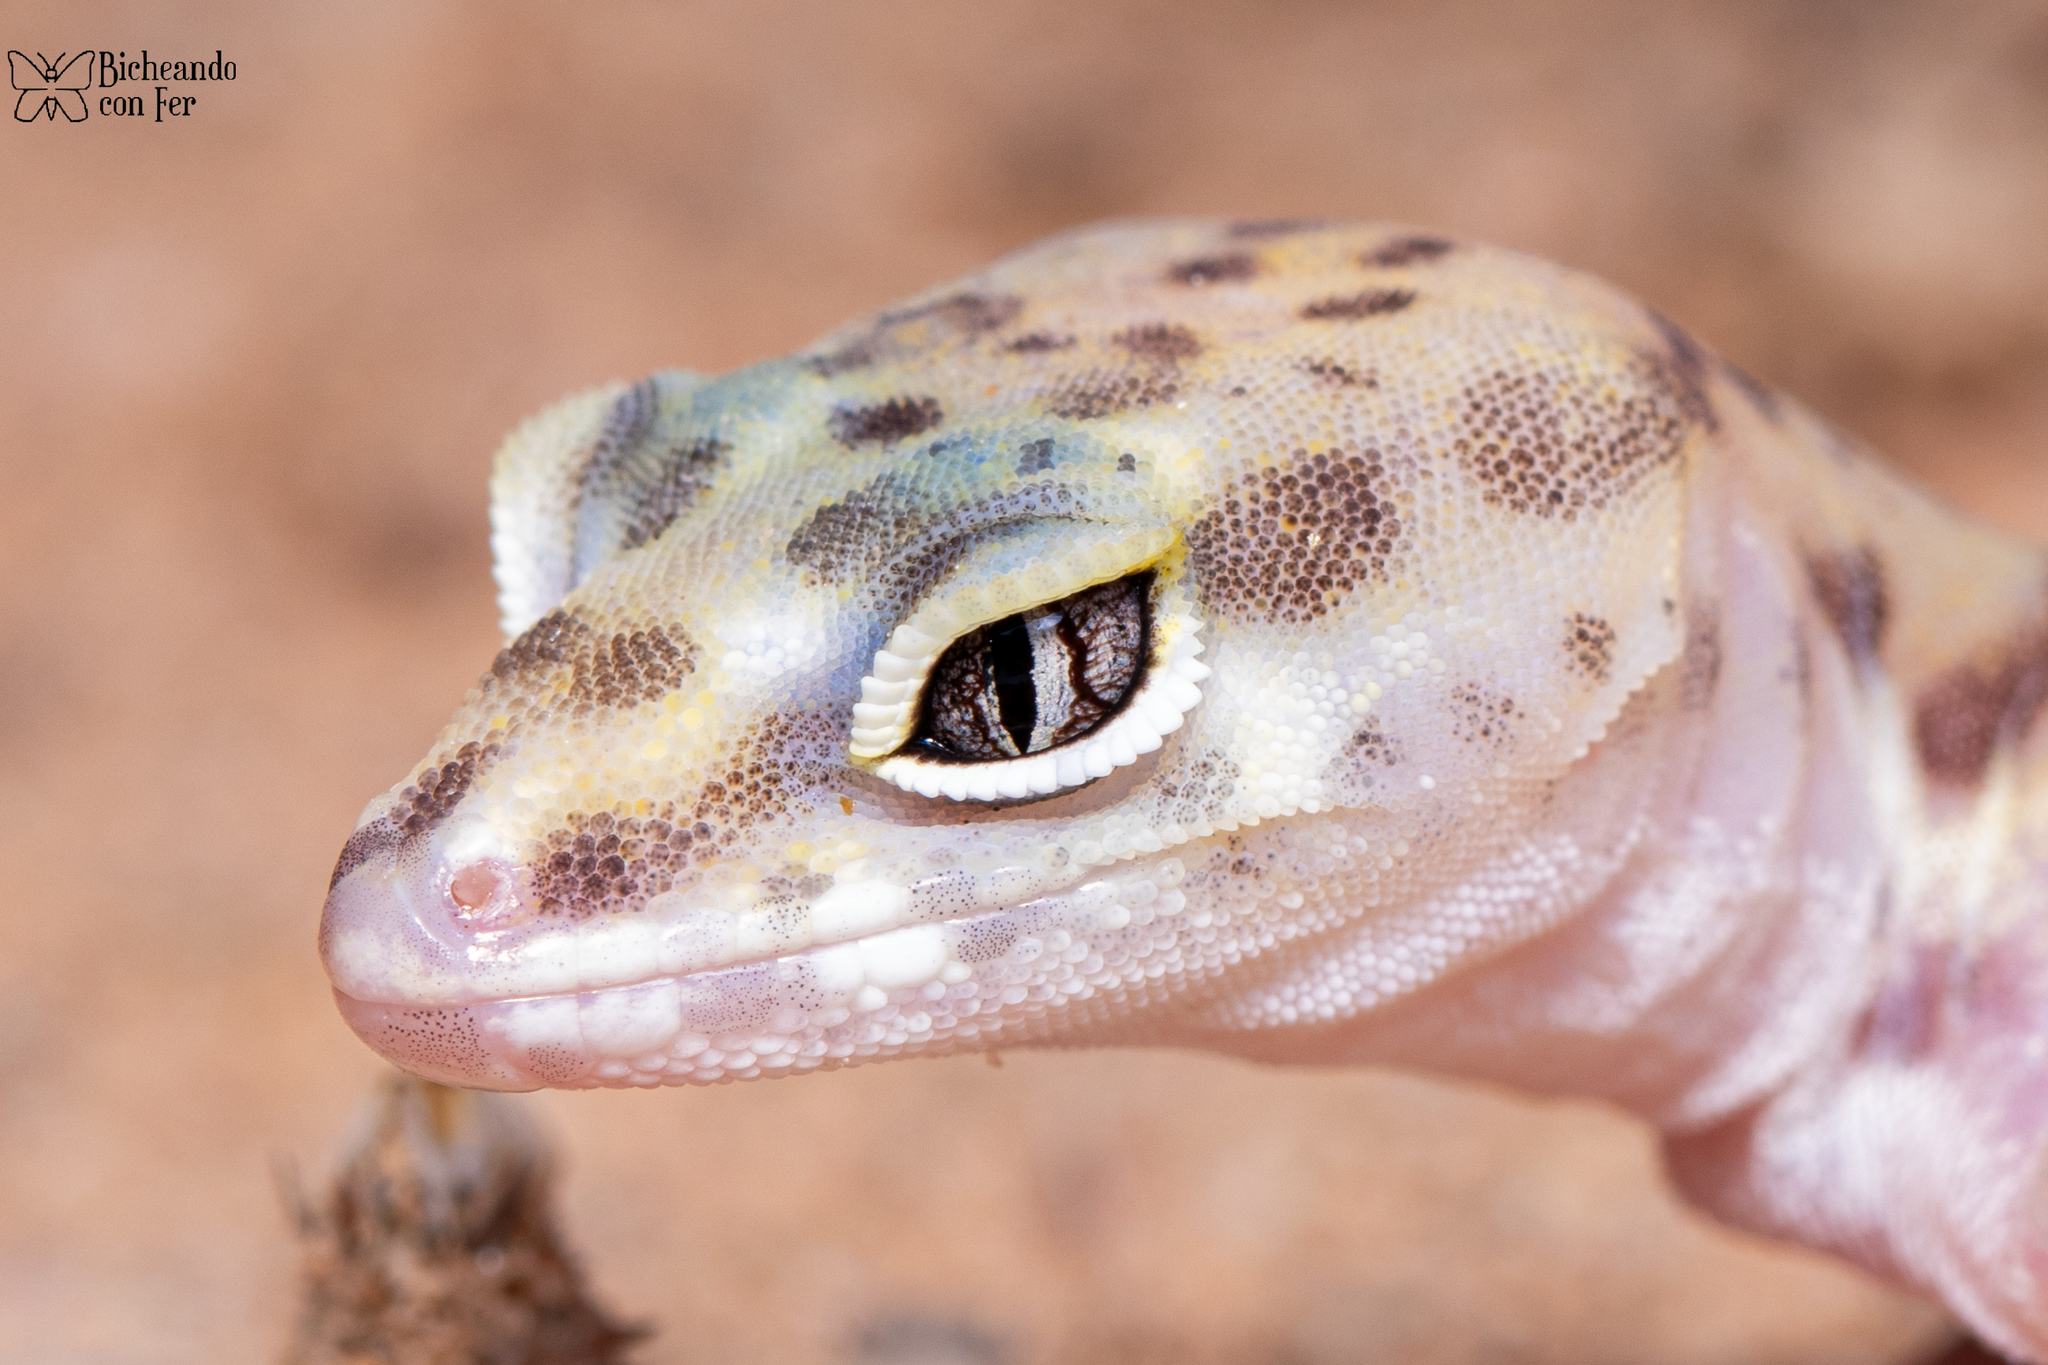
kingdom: Animalia
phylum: Chordata
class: Squamata
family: Eublepharidae
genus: Coleonyx
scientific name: Coleonyx variegatus
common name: Western banded gecko
